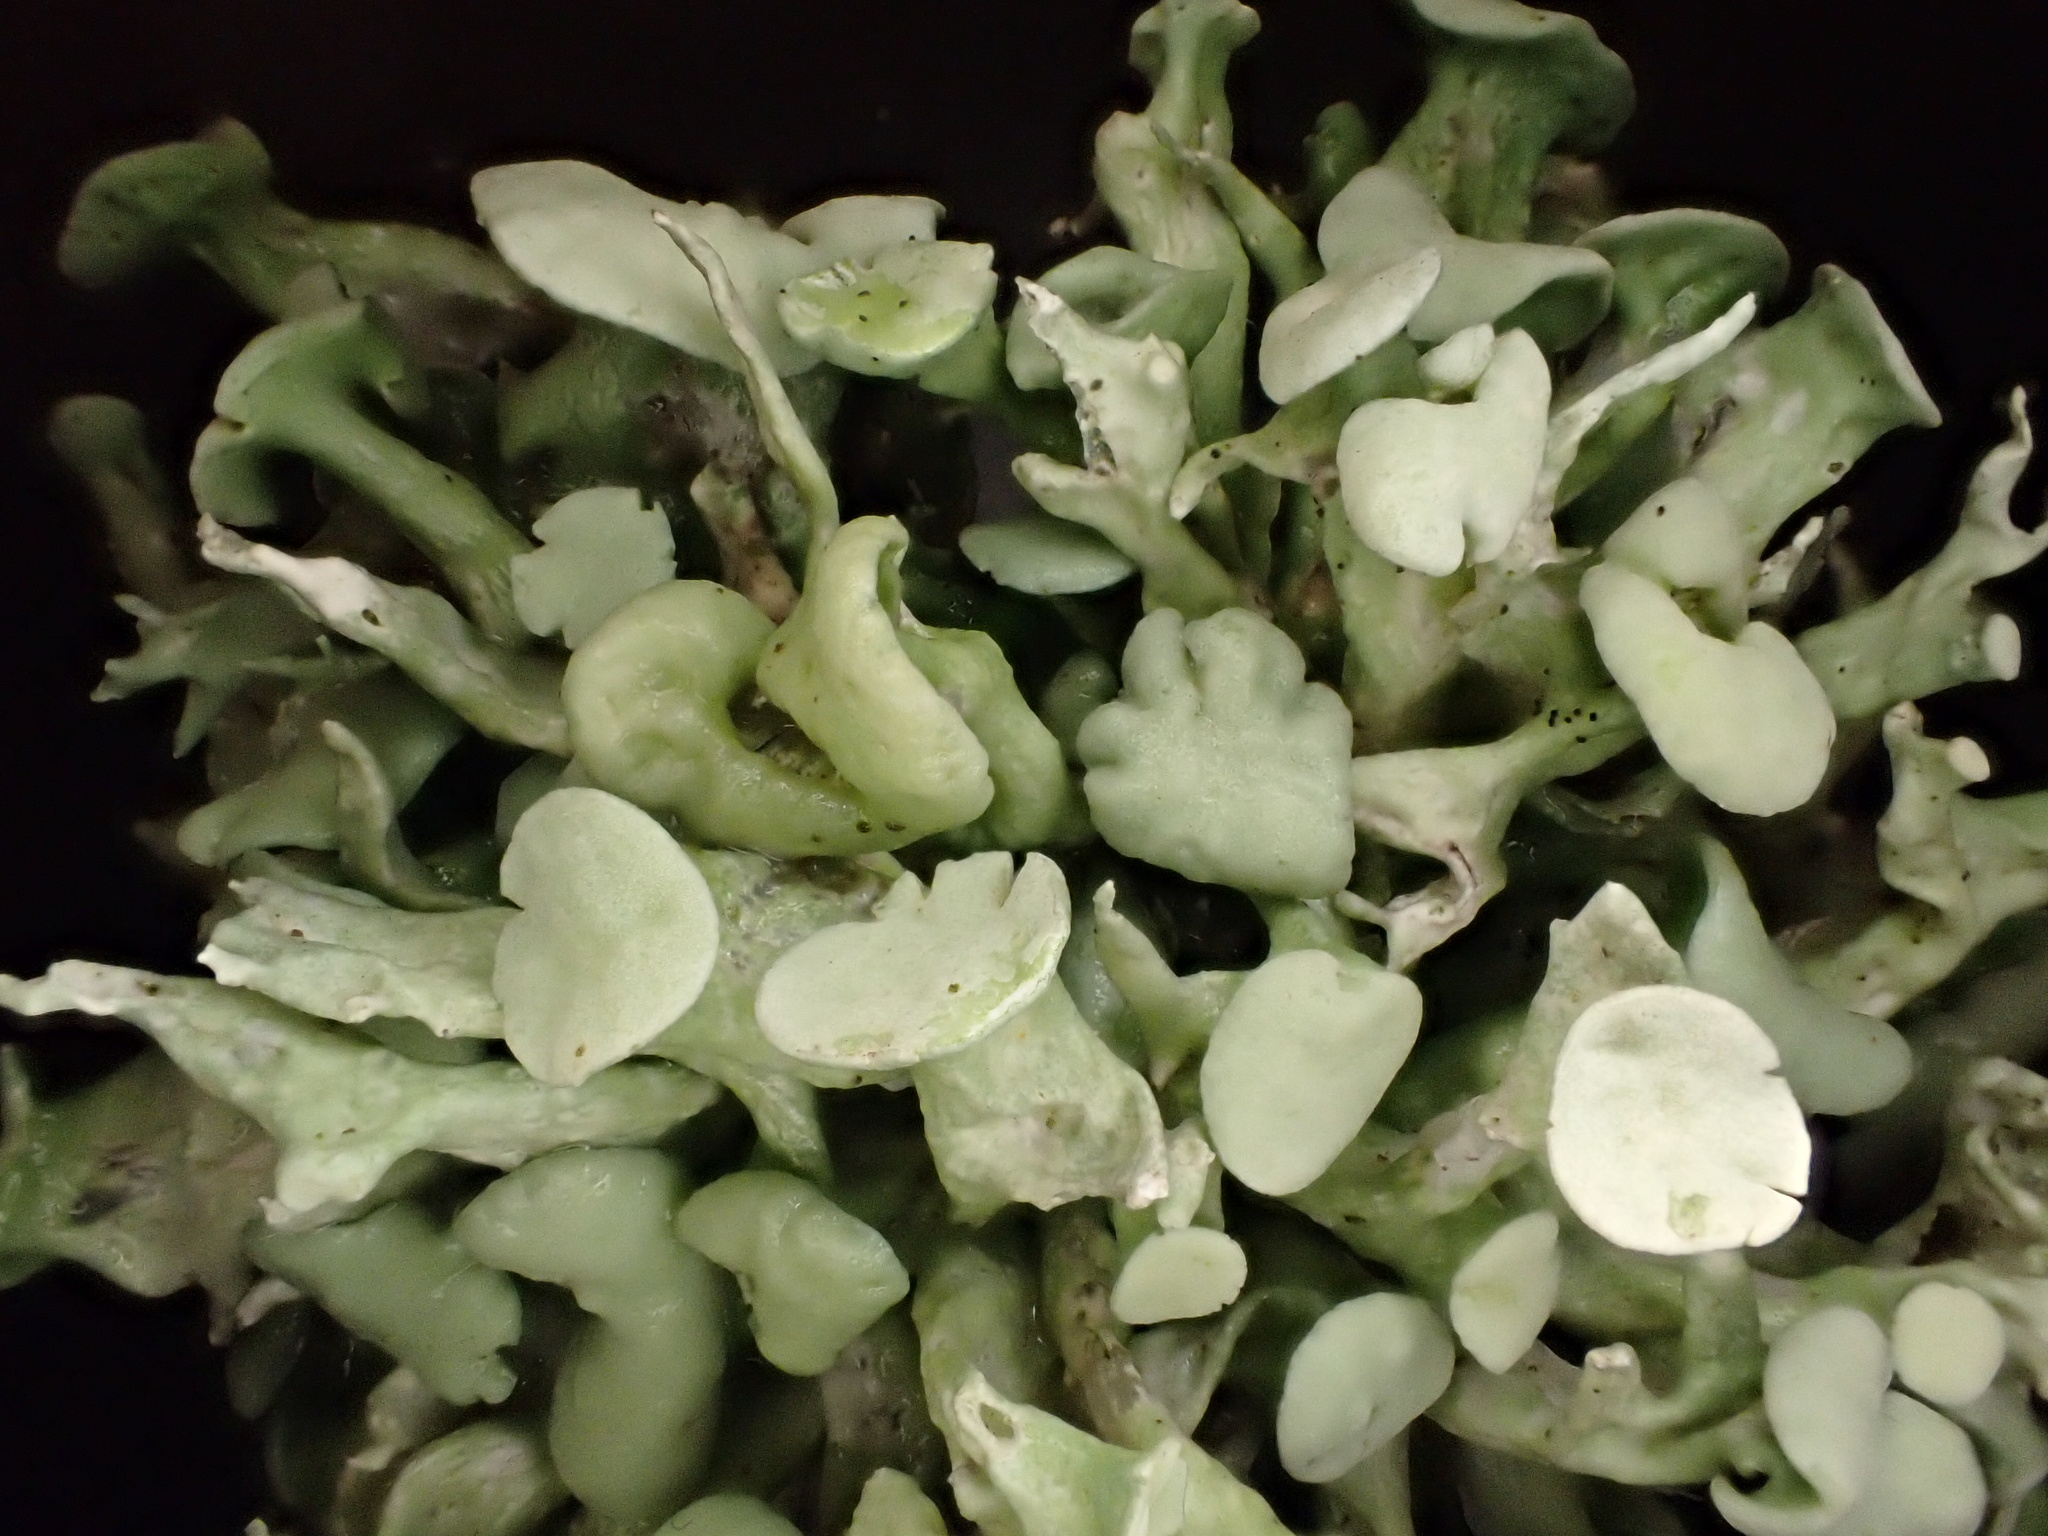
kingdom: Fungi
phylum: Ascomycota
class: Lecanoromycetes
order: Lecanorales
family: Ramalinaceae
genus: Ramalina
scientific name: Ramalina fastigiata
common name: Dotted ribbon lichen
